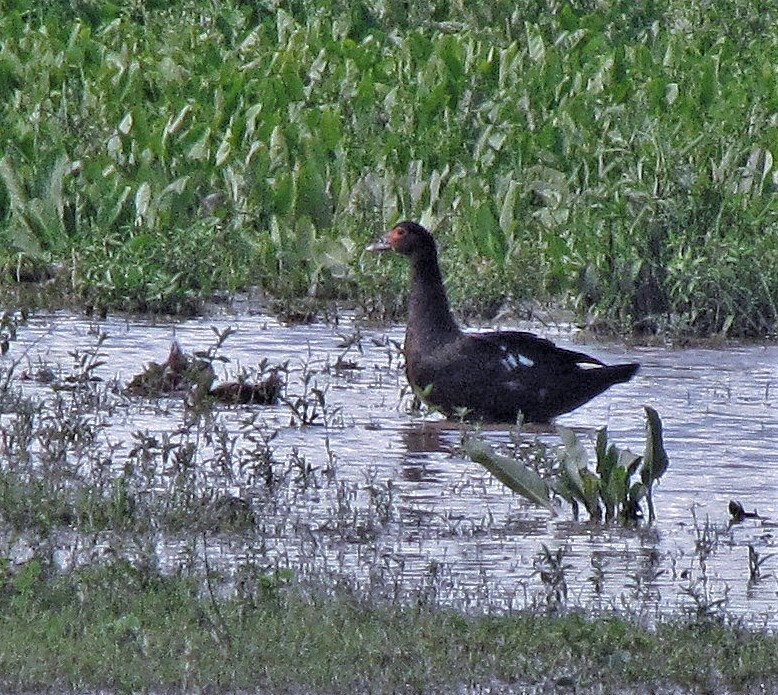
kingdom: Animalia
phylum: Chordata
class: Aves
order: Anseriformes
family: Anatidae
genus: Cairina
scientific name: Cairina moschata
